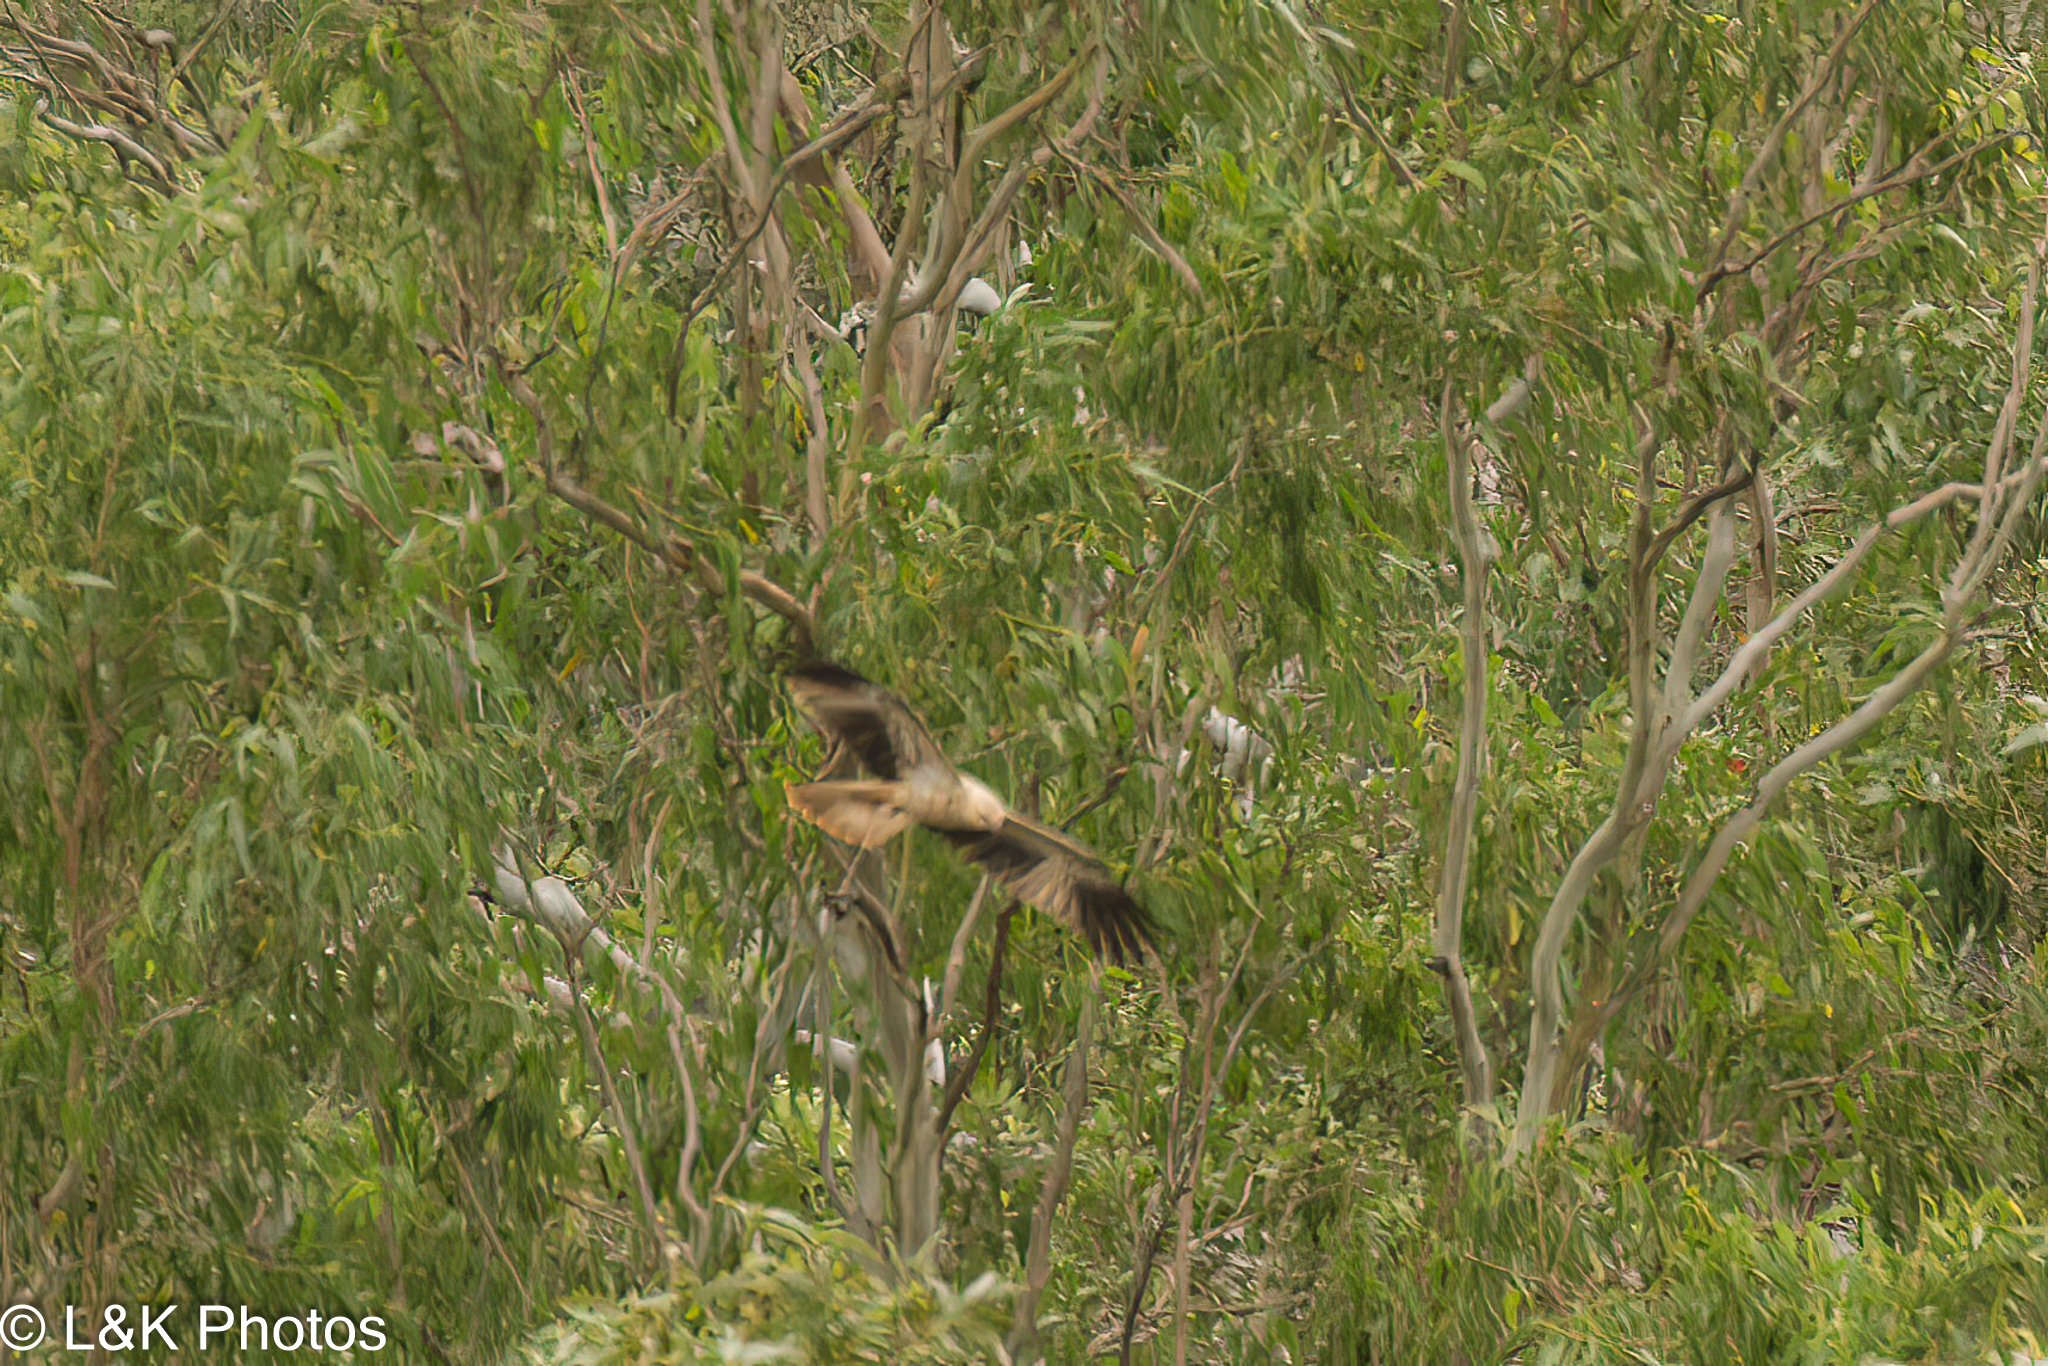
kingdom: Animalia
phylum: Chordata
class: Aves
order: Accipitriformes
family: Accipitridae
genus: Haliastur
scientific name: Haliastur sphenurus
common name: Whistling kite
